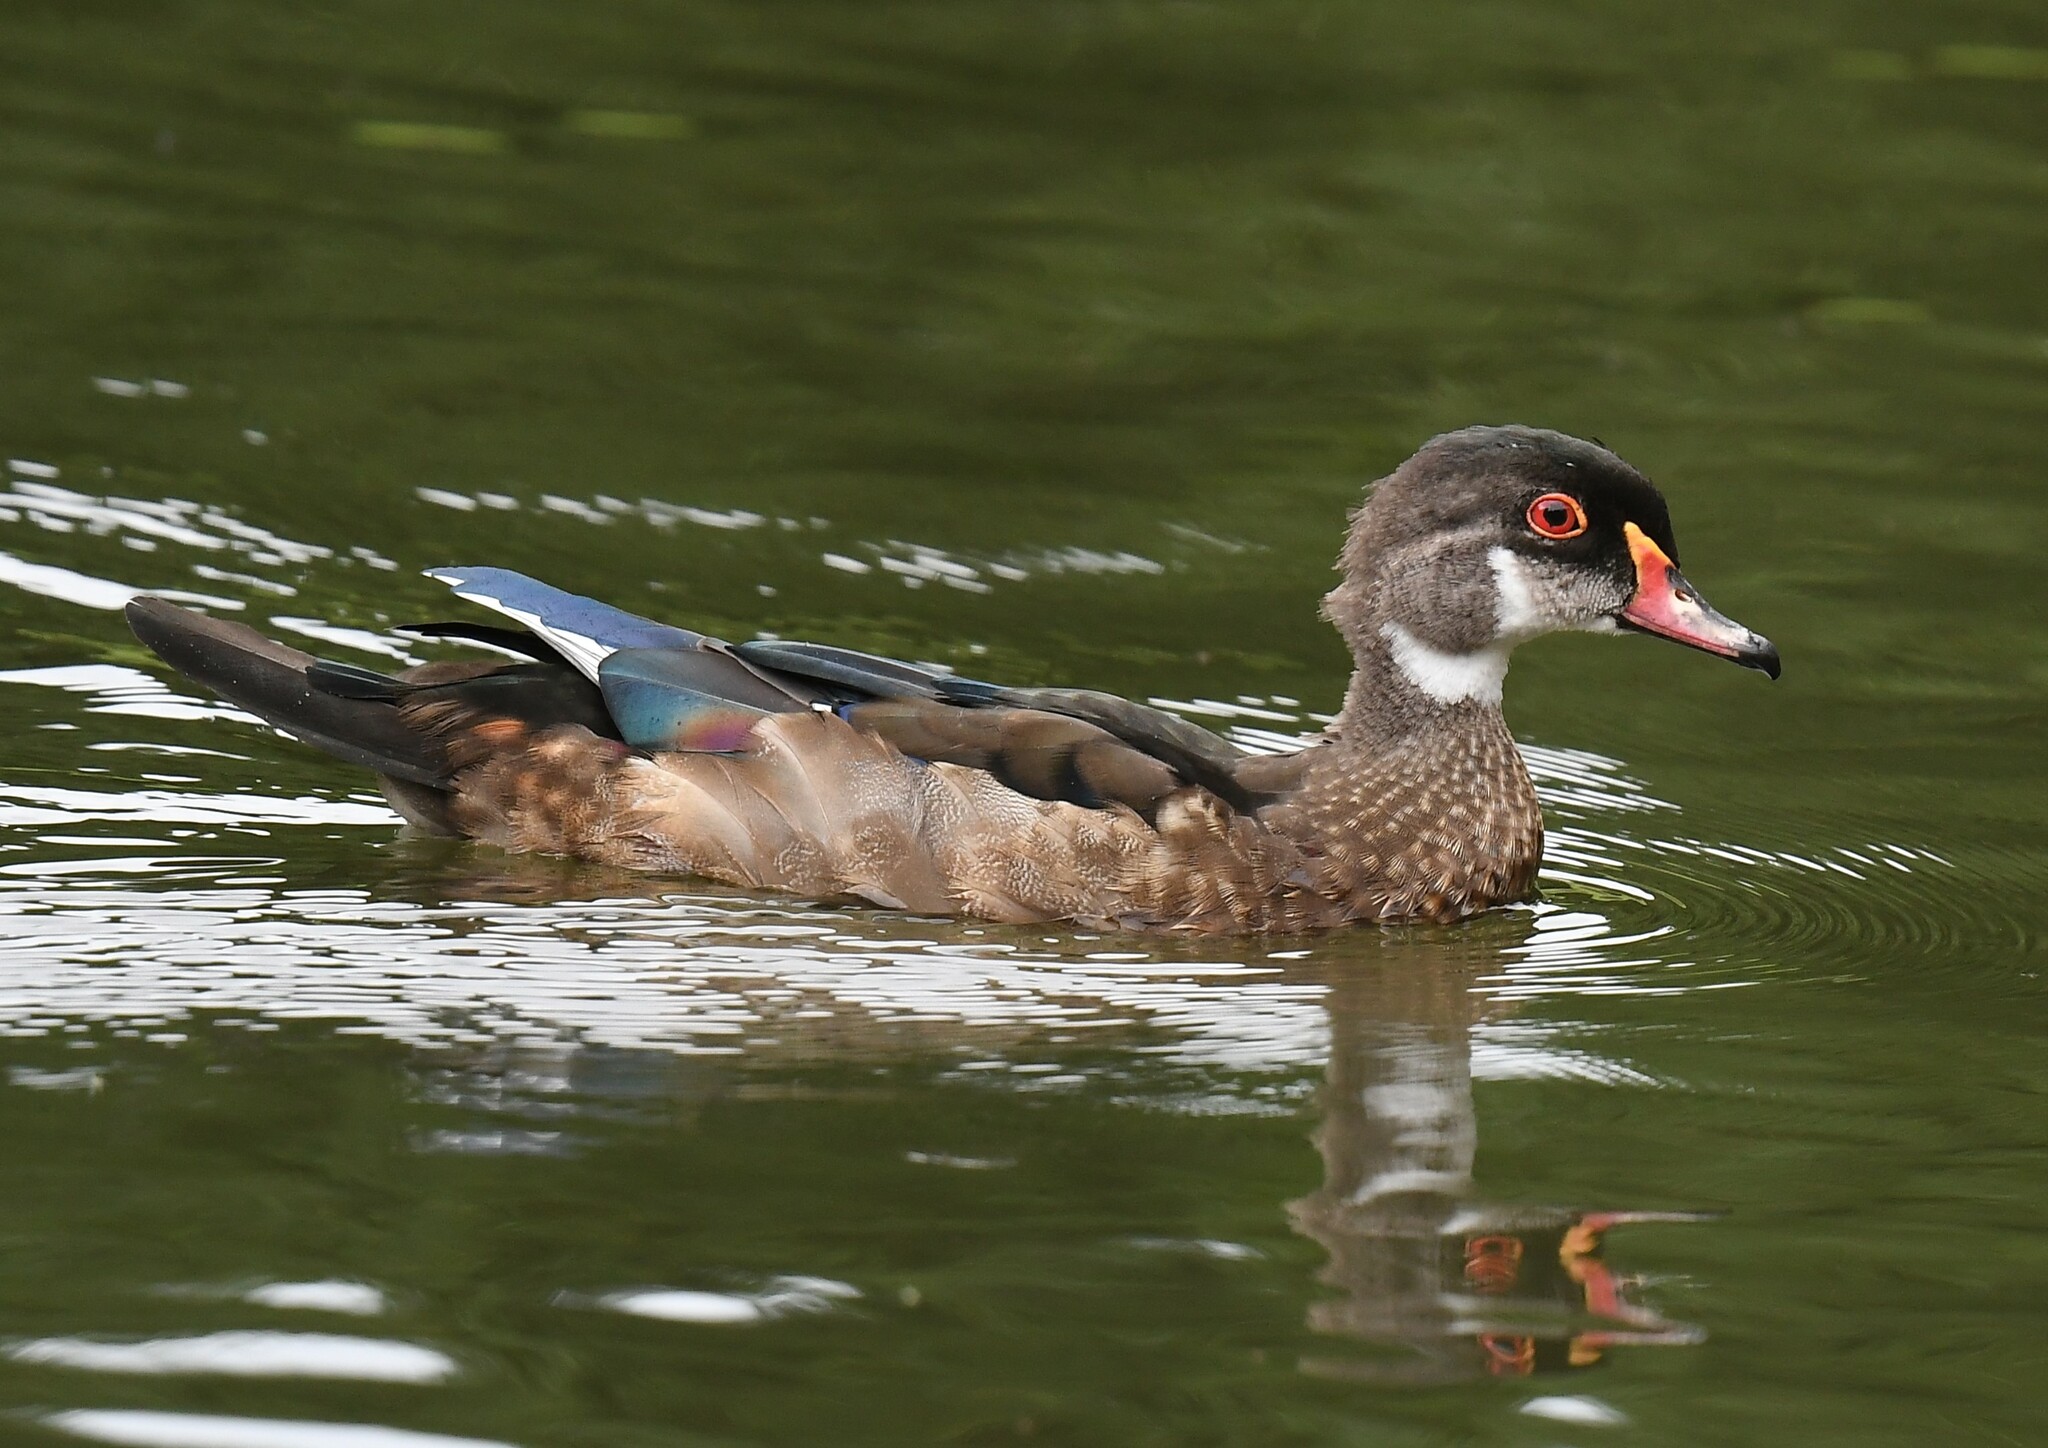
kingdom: Animalia
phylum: Chordata
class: Aves
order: Anseriformes
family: Anatidae
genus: Aix
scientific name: Aix sponsa
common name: Wood duck
